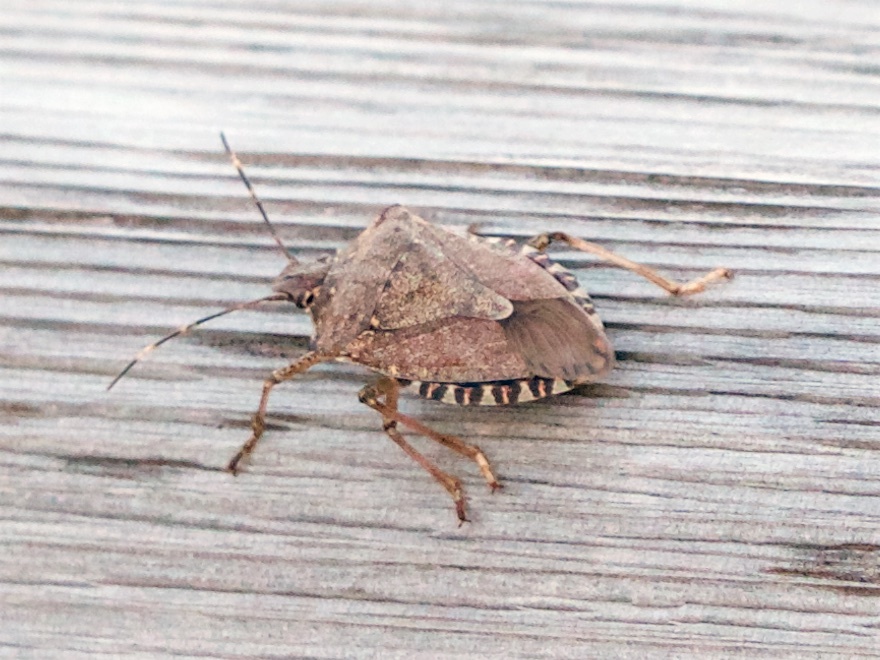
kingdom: Animalia
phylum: Arthropoda
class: Insecta
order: Hemiptera
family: Pentatomidae
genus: Halyomorpha
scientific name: Halyomorpha halys
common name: Brown marmorated stink bug
